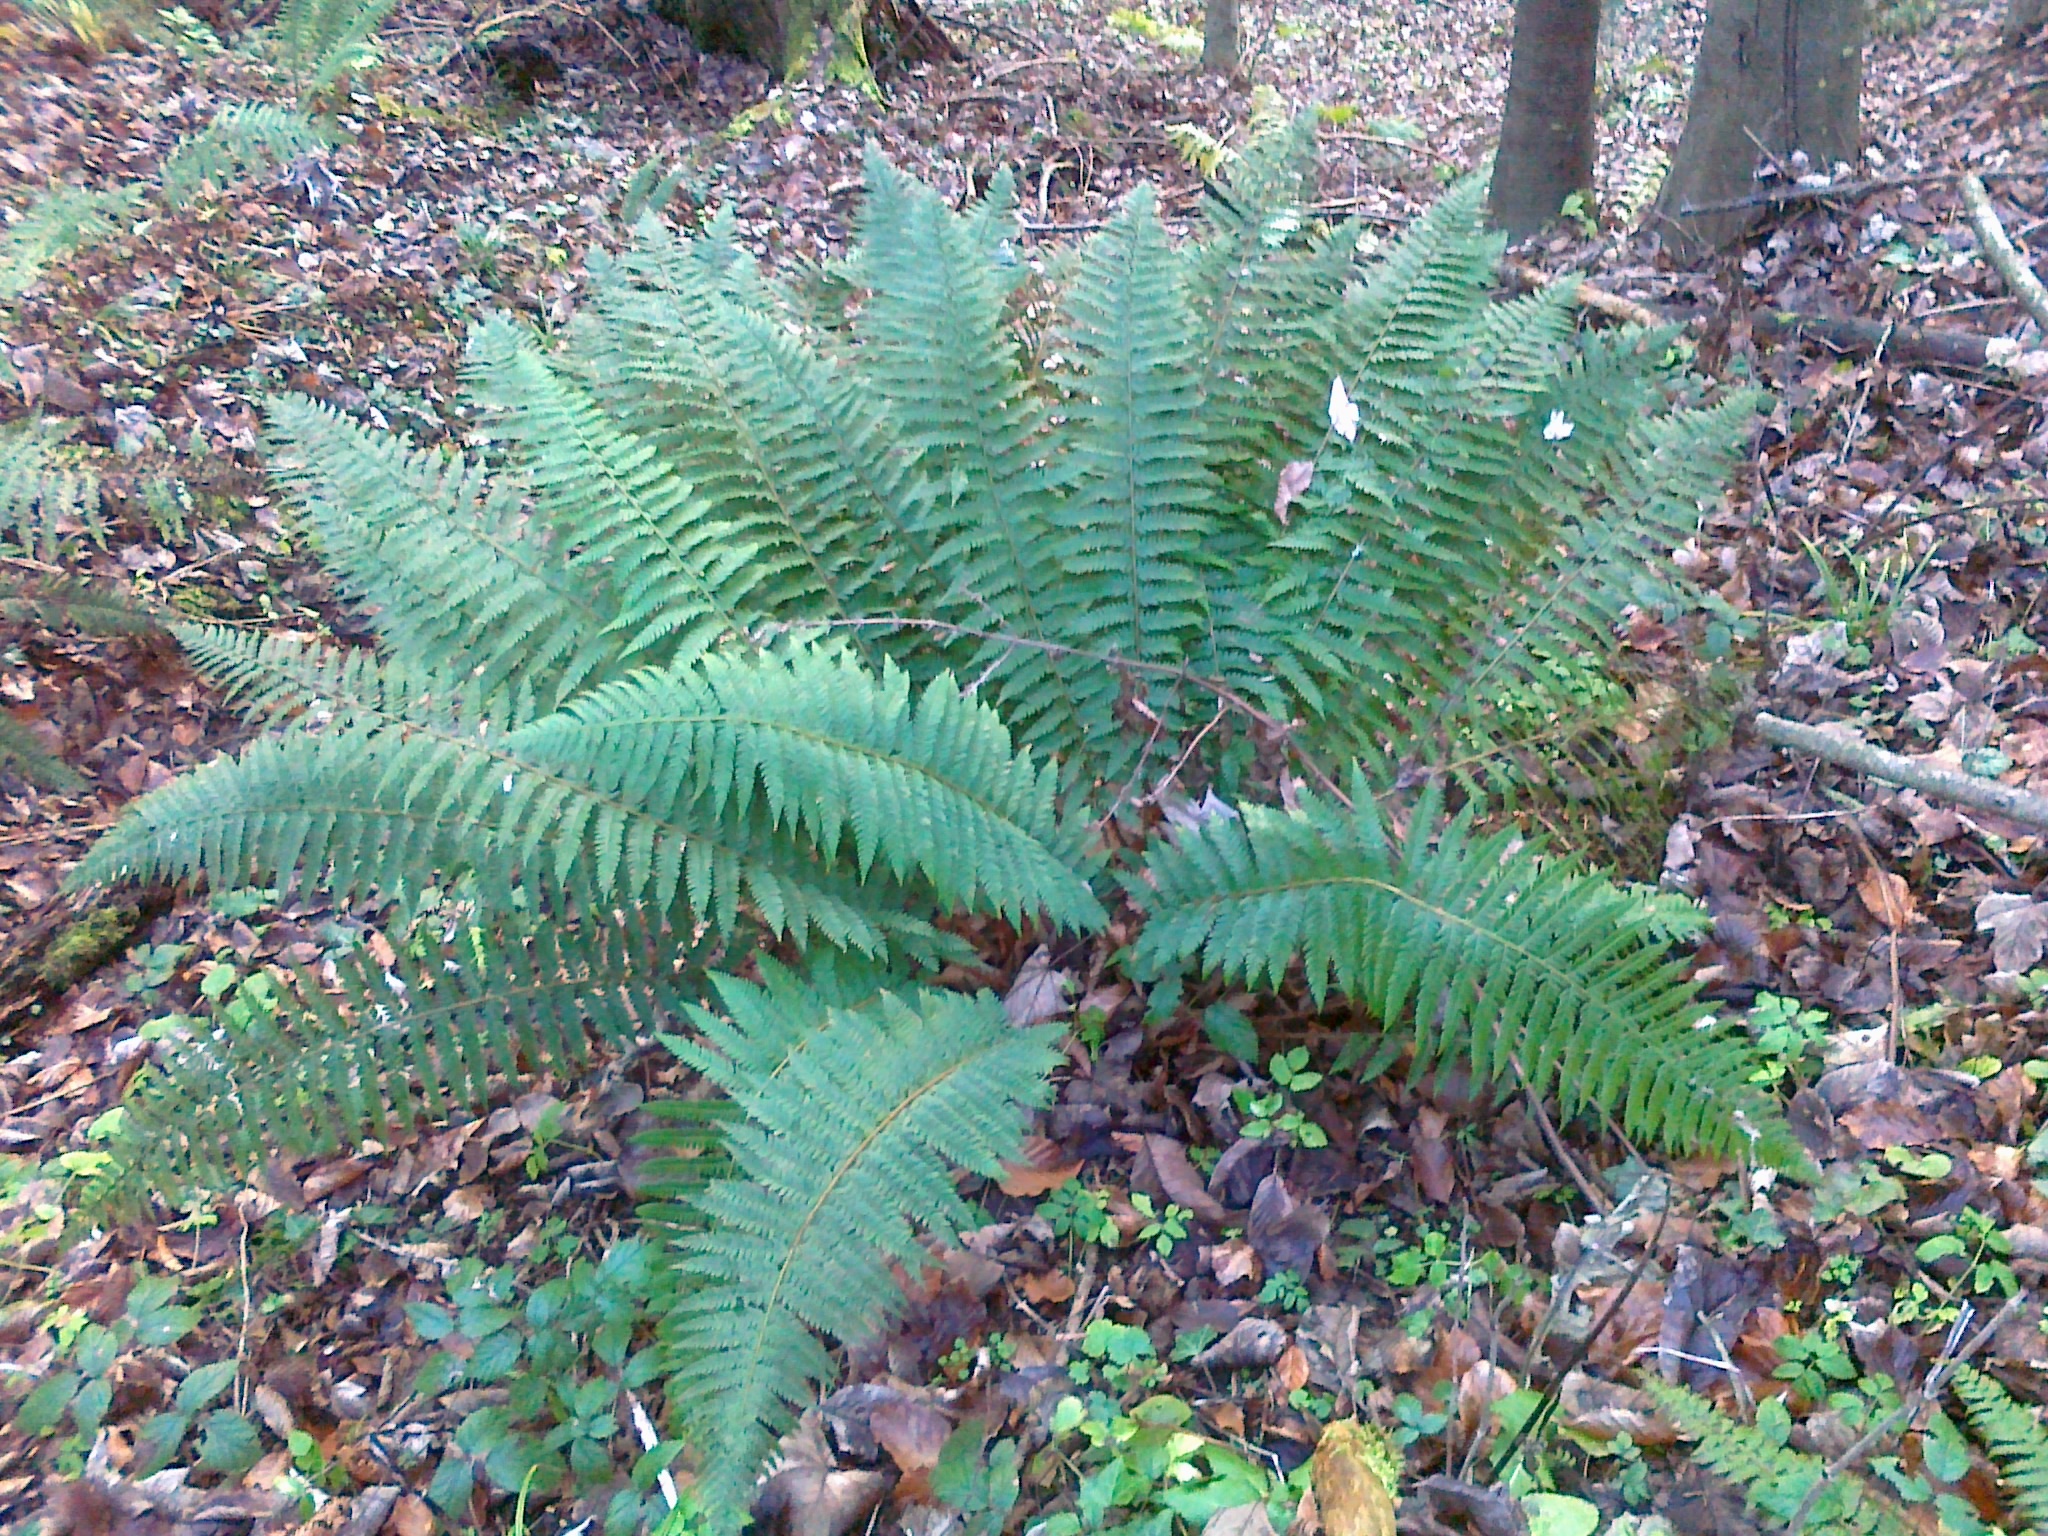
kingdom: Plantae
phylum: Tracheophyta
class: Polypodiopsida
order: Polypodiales
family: Dryopteridaceae
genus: Polystichum
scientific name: Polystichum aculeatum
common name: Hard shield-fern
